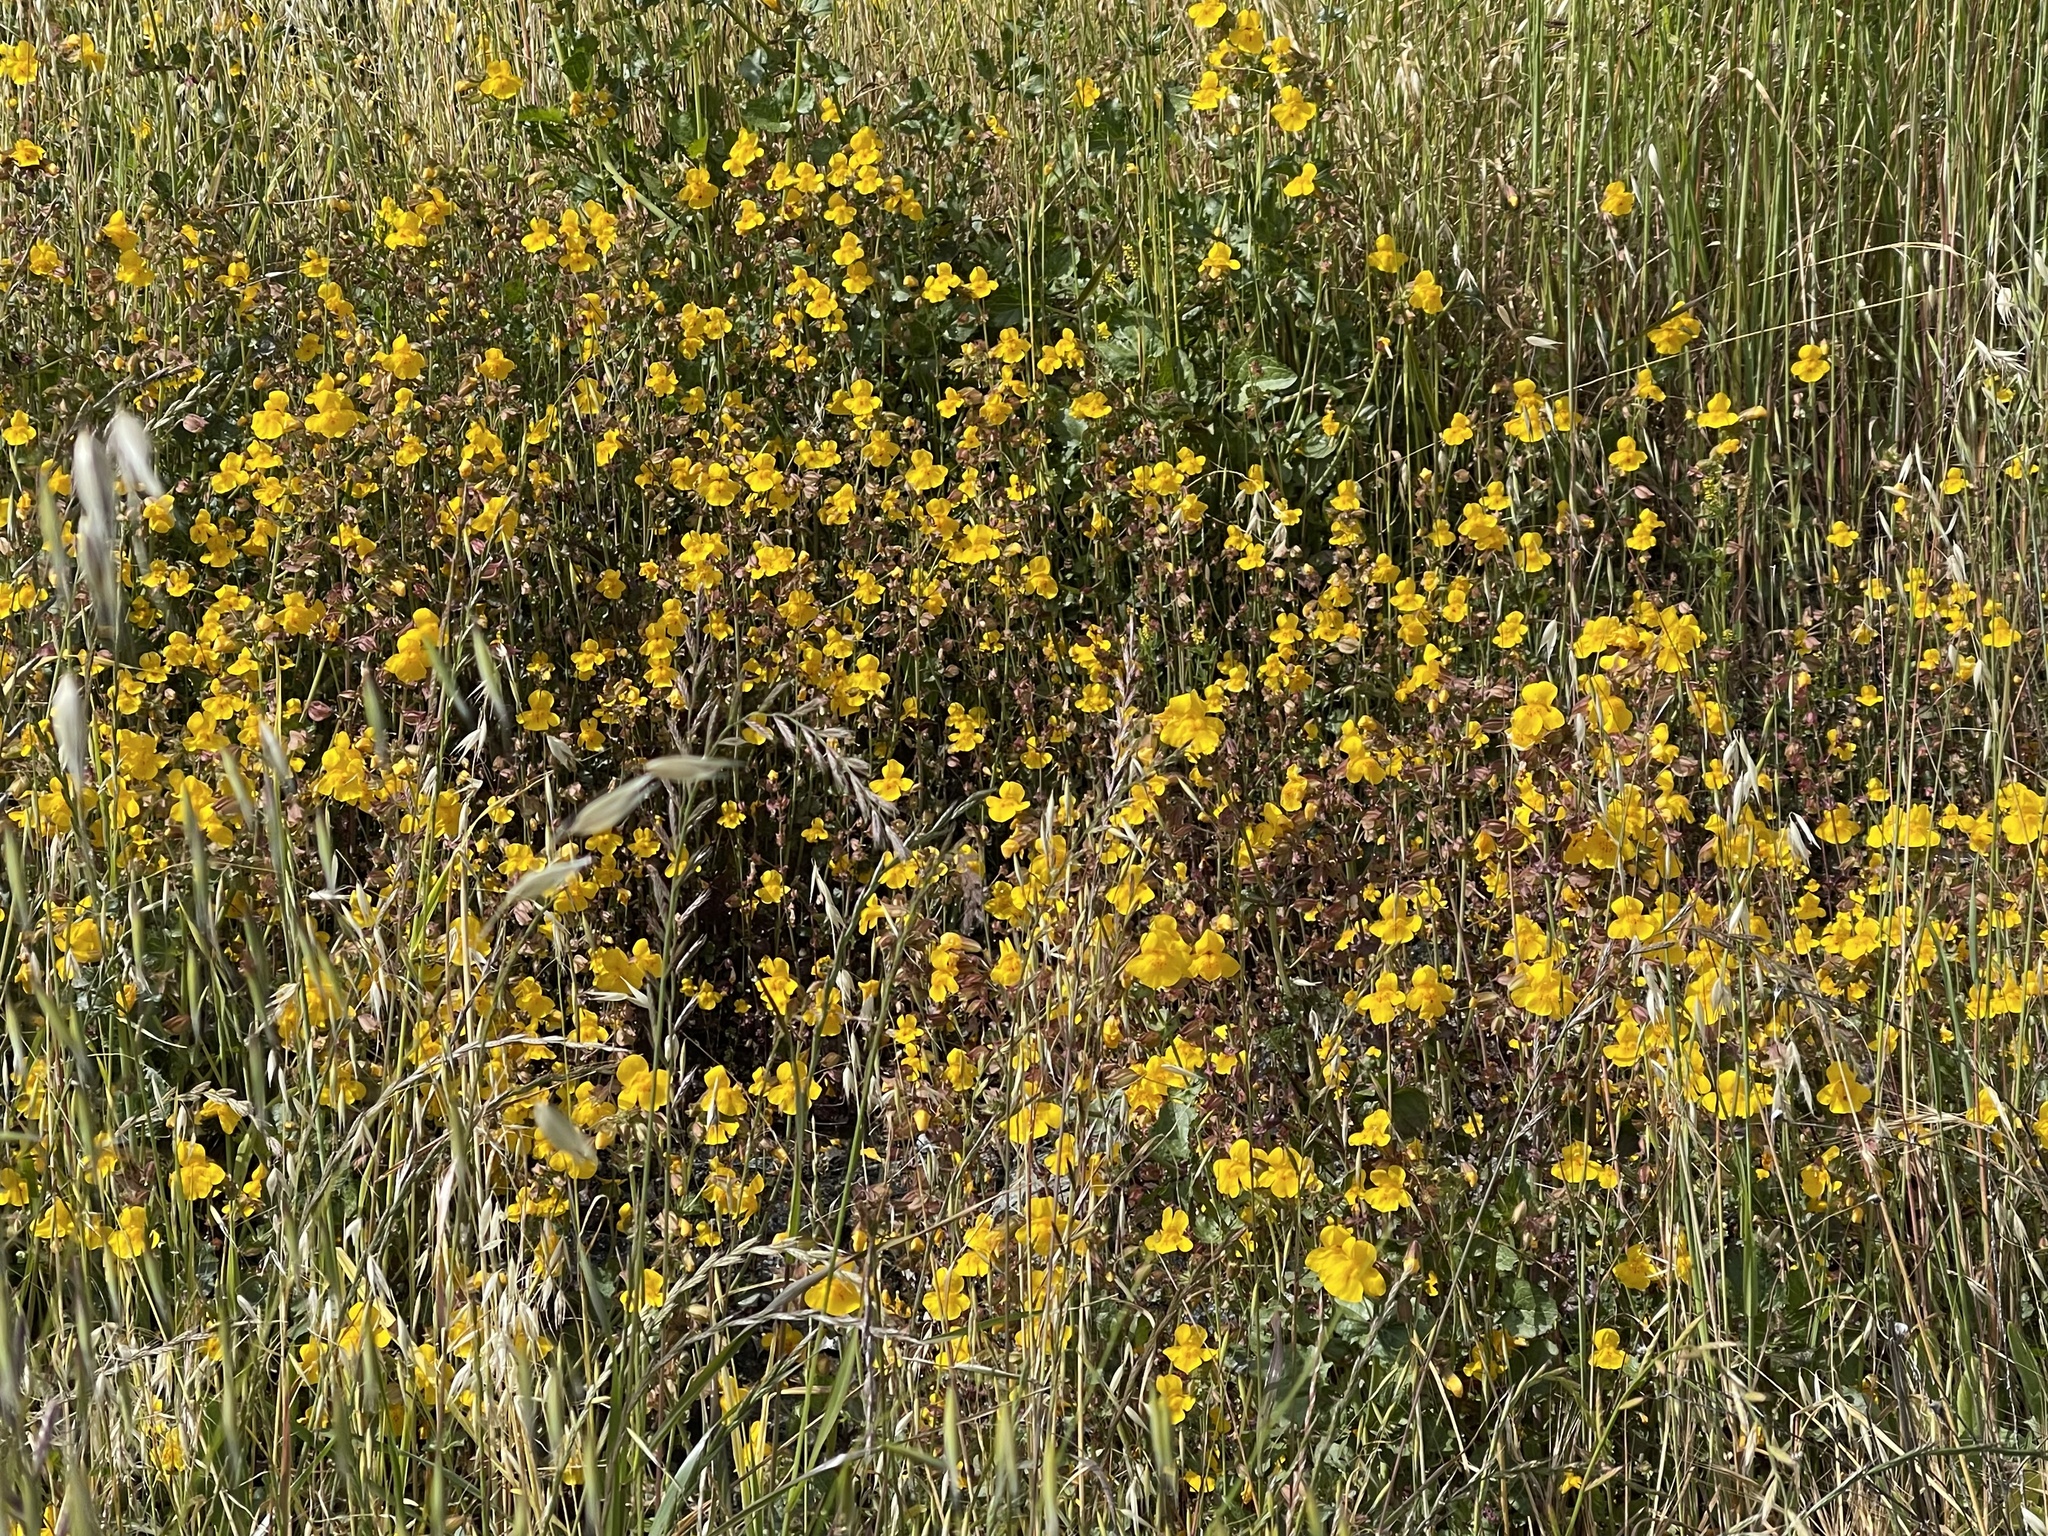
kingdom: Plantae
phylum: Tracheophyta
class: Magnoliopsida
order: Lamiales
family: Phrymaceae
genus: Erythranthe
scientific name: Erythranthe guttata
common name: Monkeyflower
